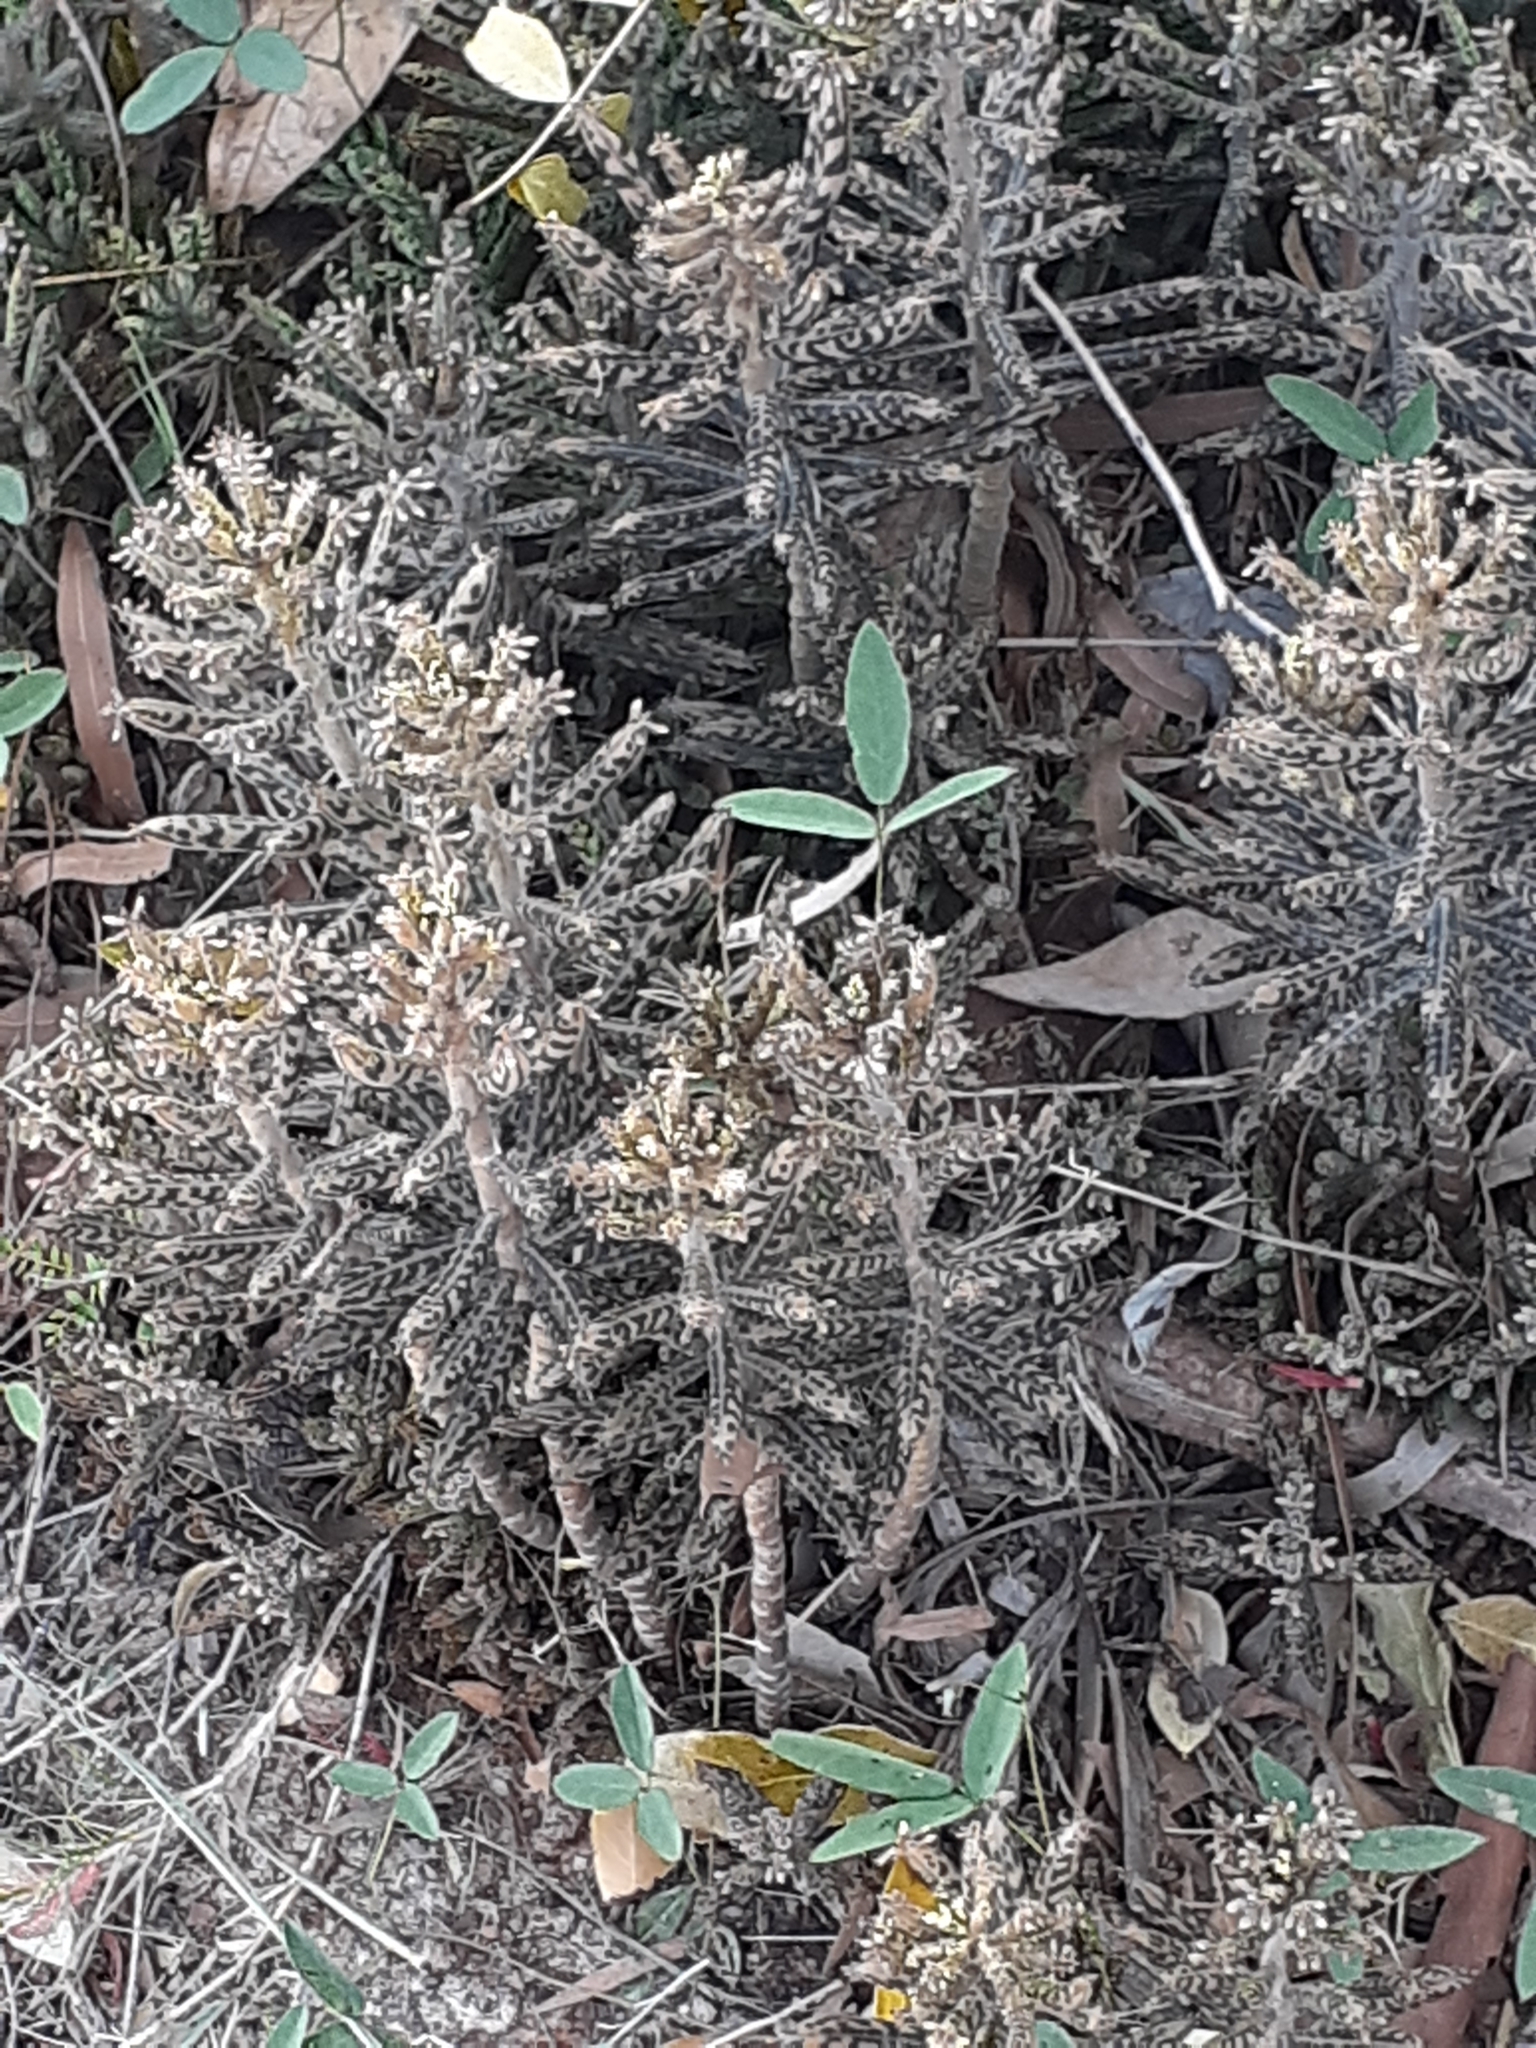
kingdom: Plantae
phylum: Tracheophyta
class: Magnoliopsida
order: Saxifragales
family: Crassulaceae
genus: Kalanchoe
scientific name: Kalanchoe delagoensis
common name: Chandelier plant
